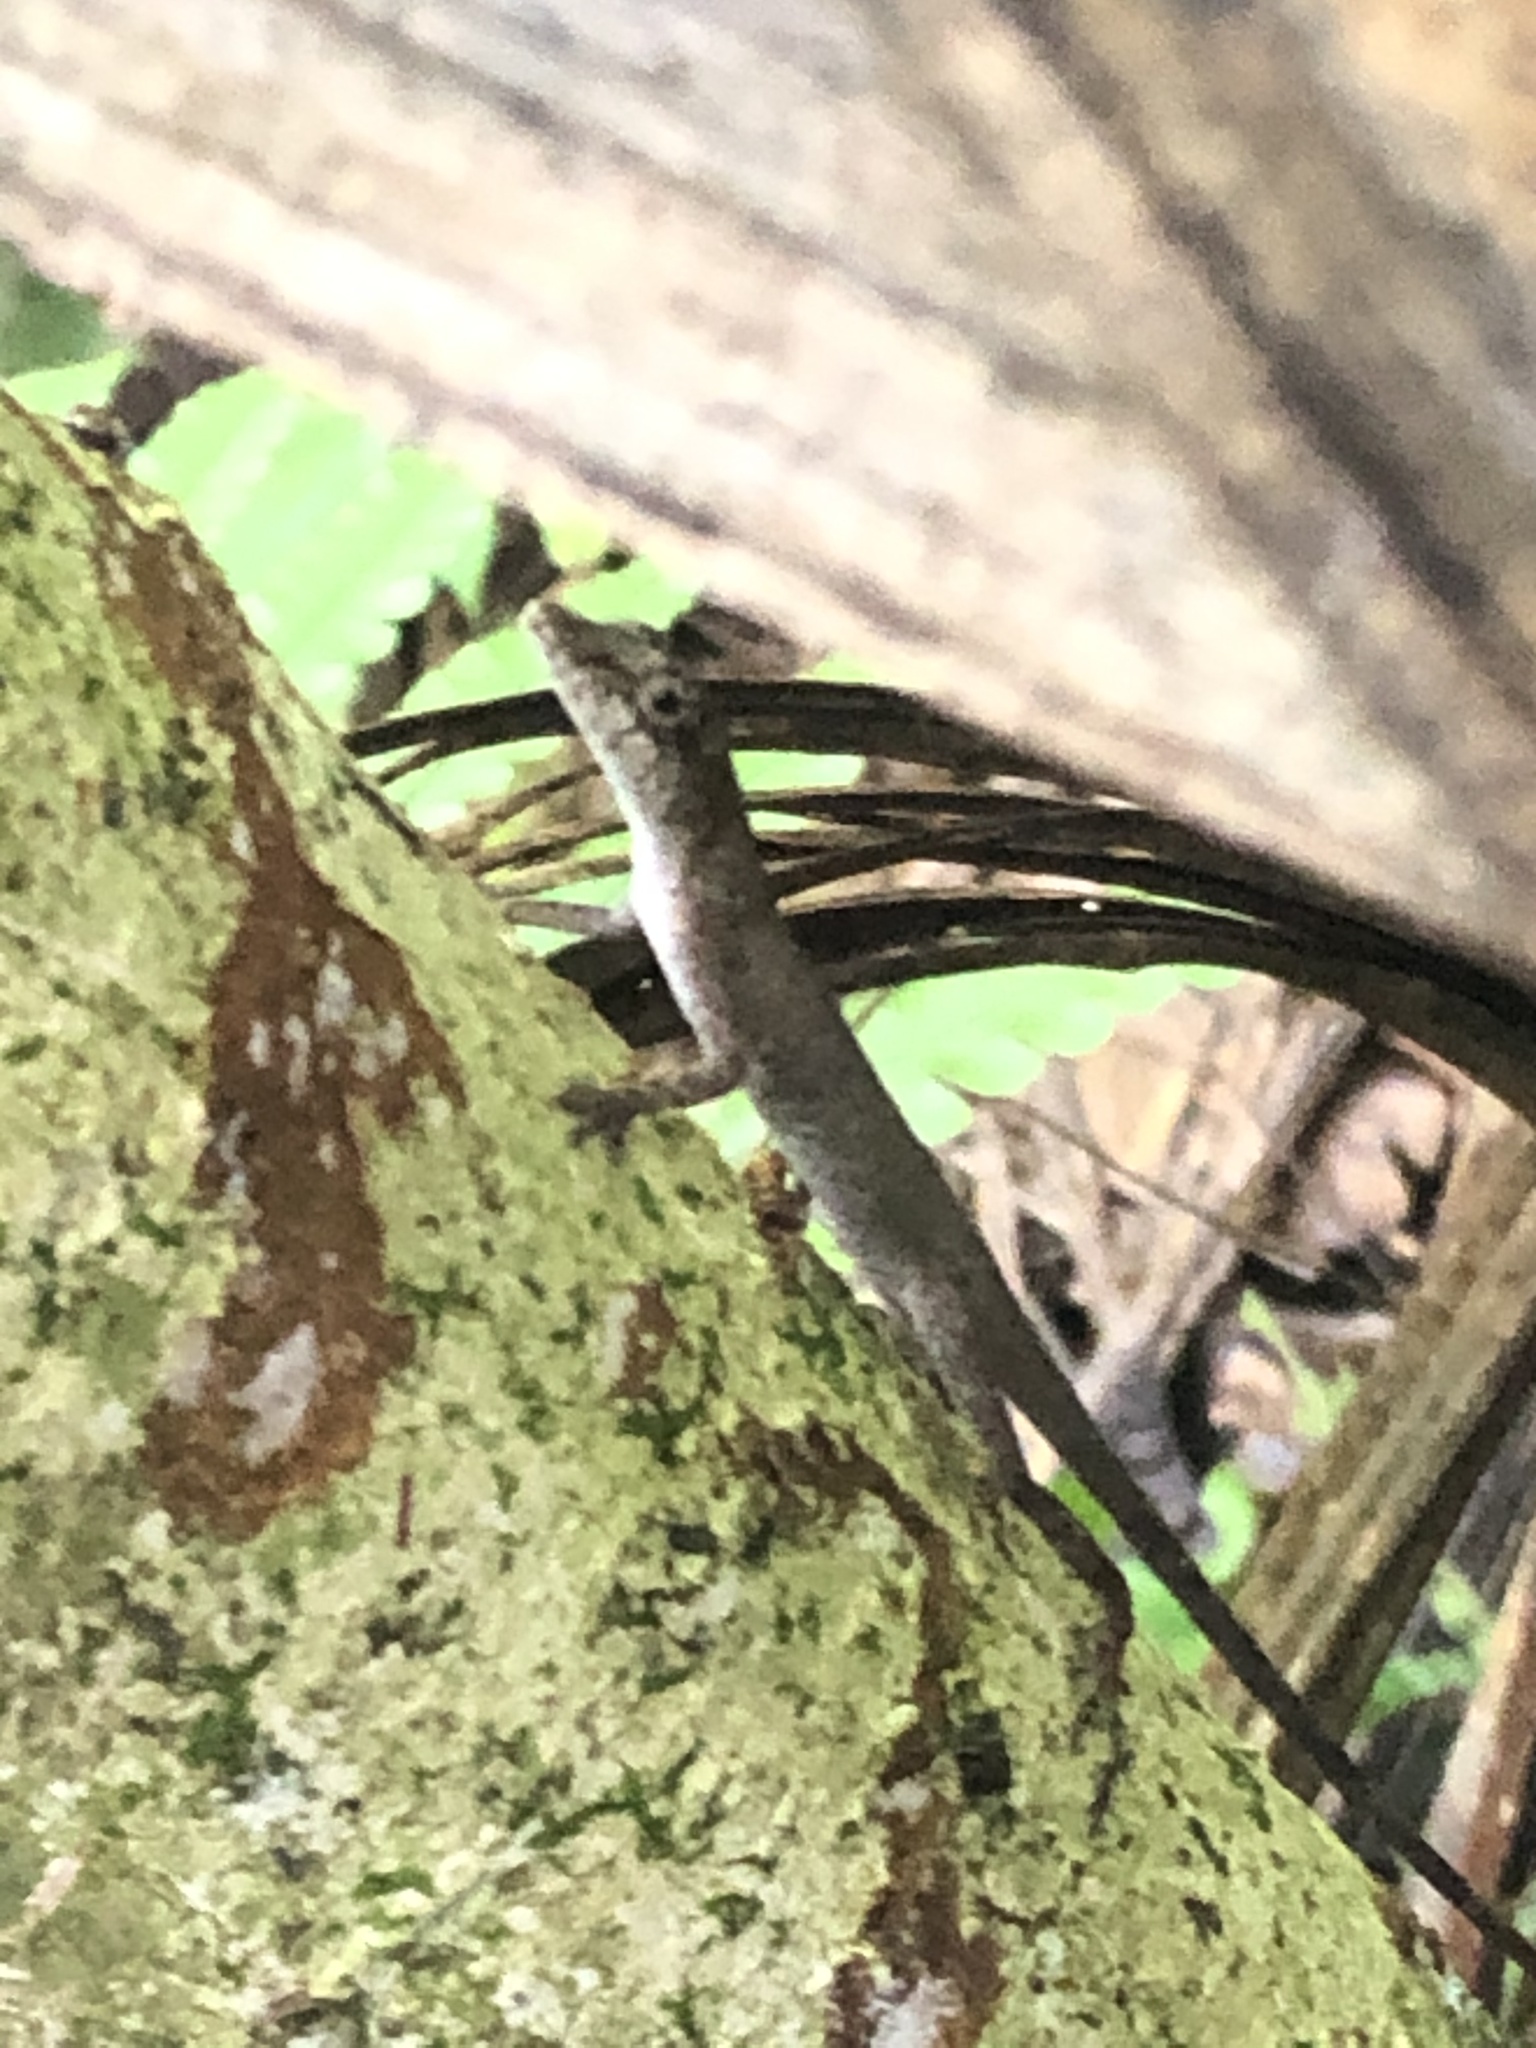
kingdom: Animalia
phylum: Chordata
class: Squamata
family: Dactyloidae
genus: Anolis
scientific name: Anolis fuscoauratus
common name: Brown-eared anole
